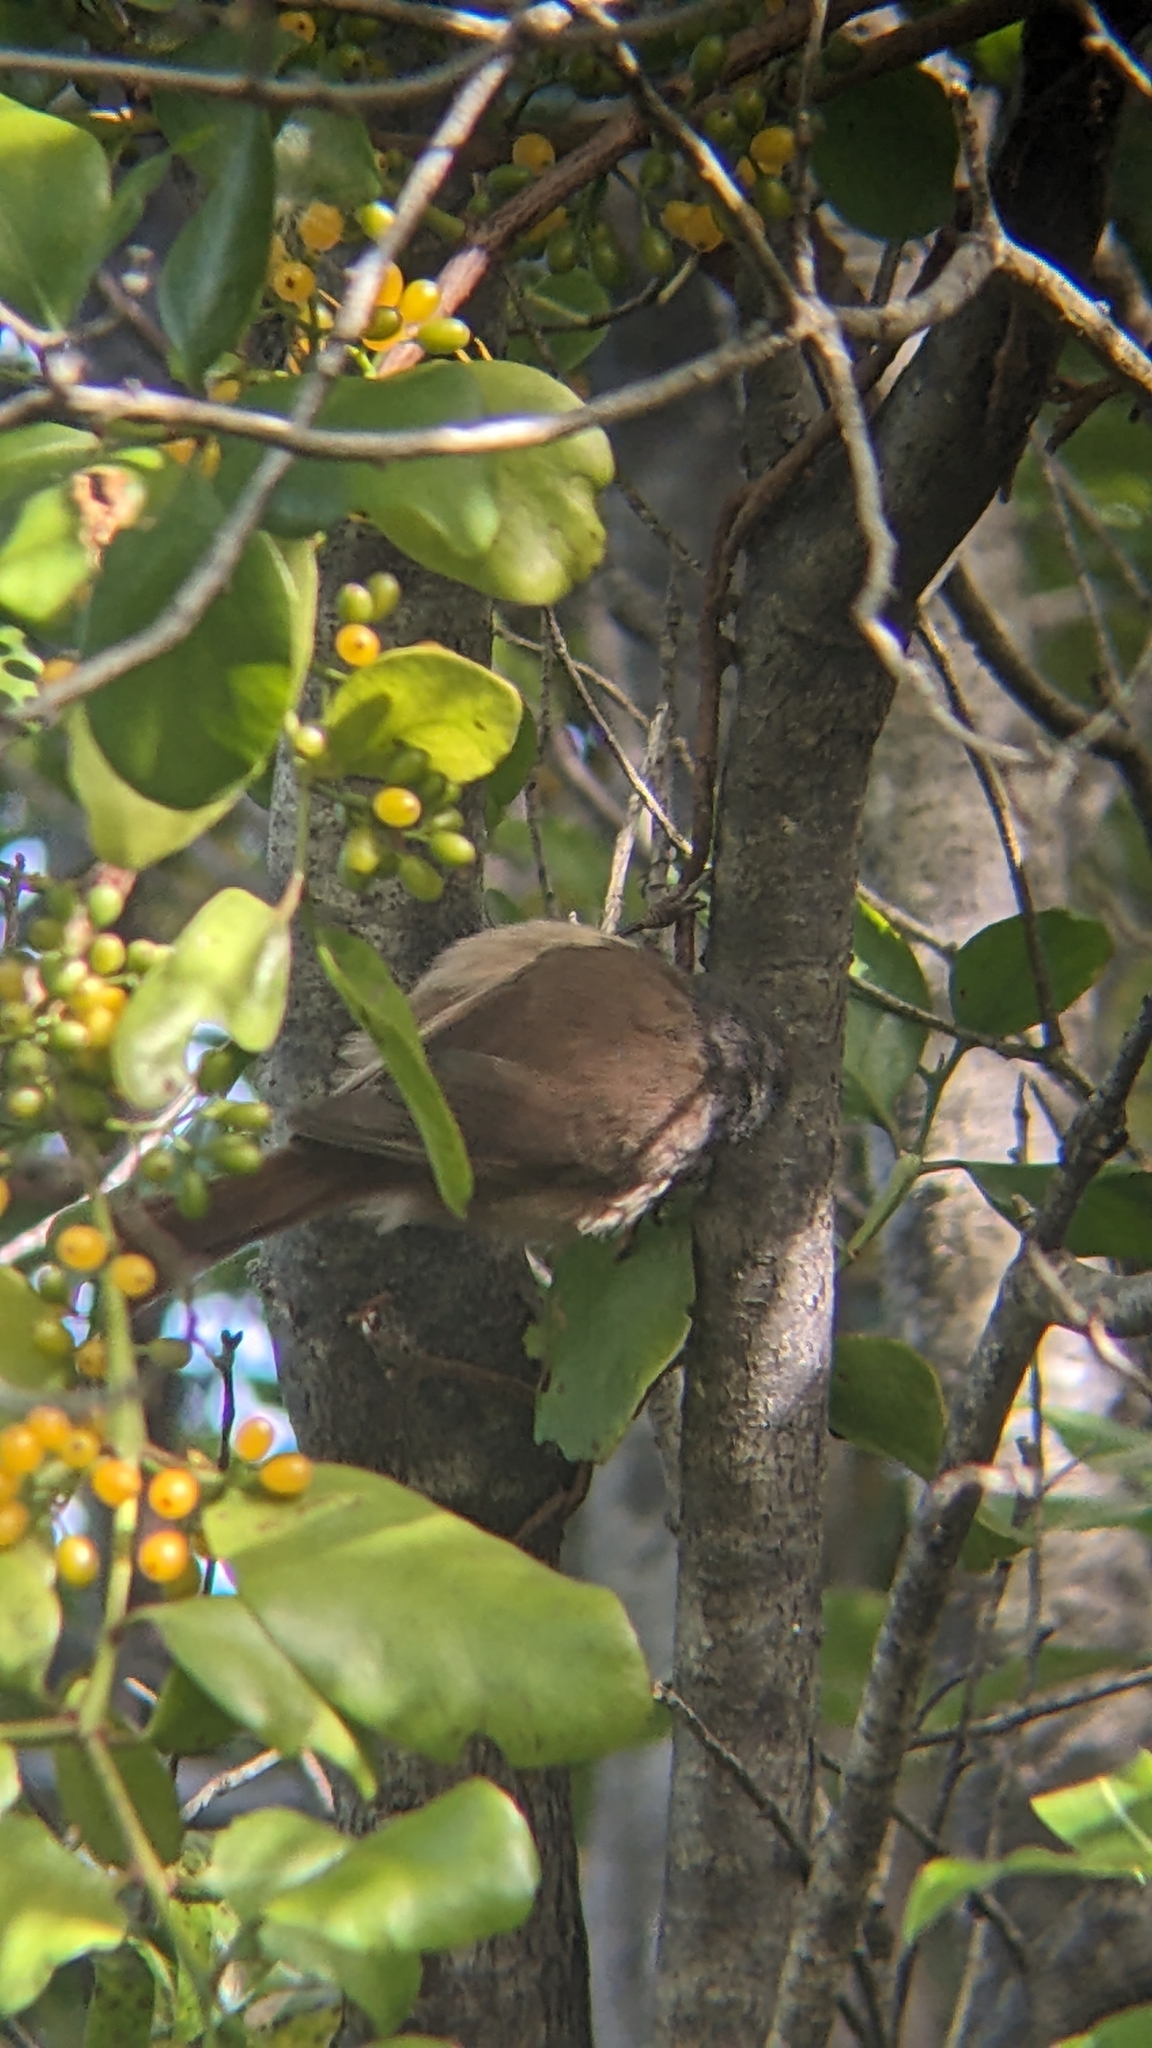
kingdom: Animalia
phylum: Chordata
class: Aves
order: Passeriformes
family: Acanthizidae
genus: Finschia
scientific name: Finschia novaeseelandiae
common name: Pipipi
